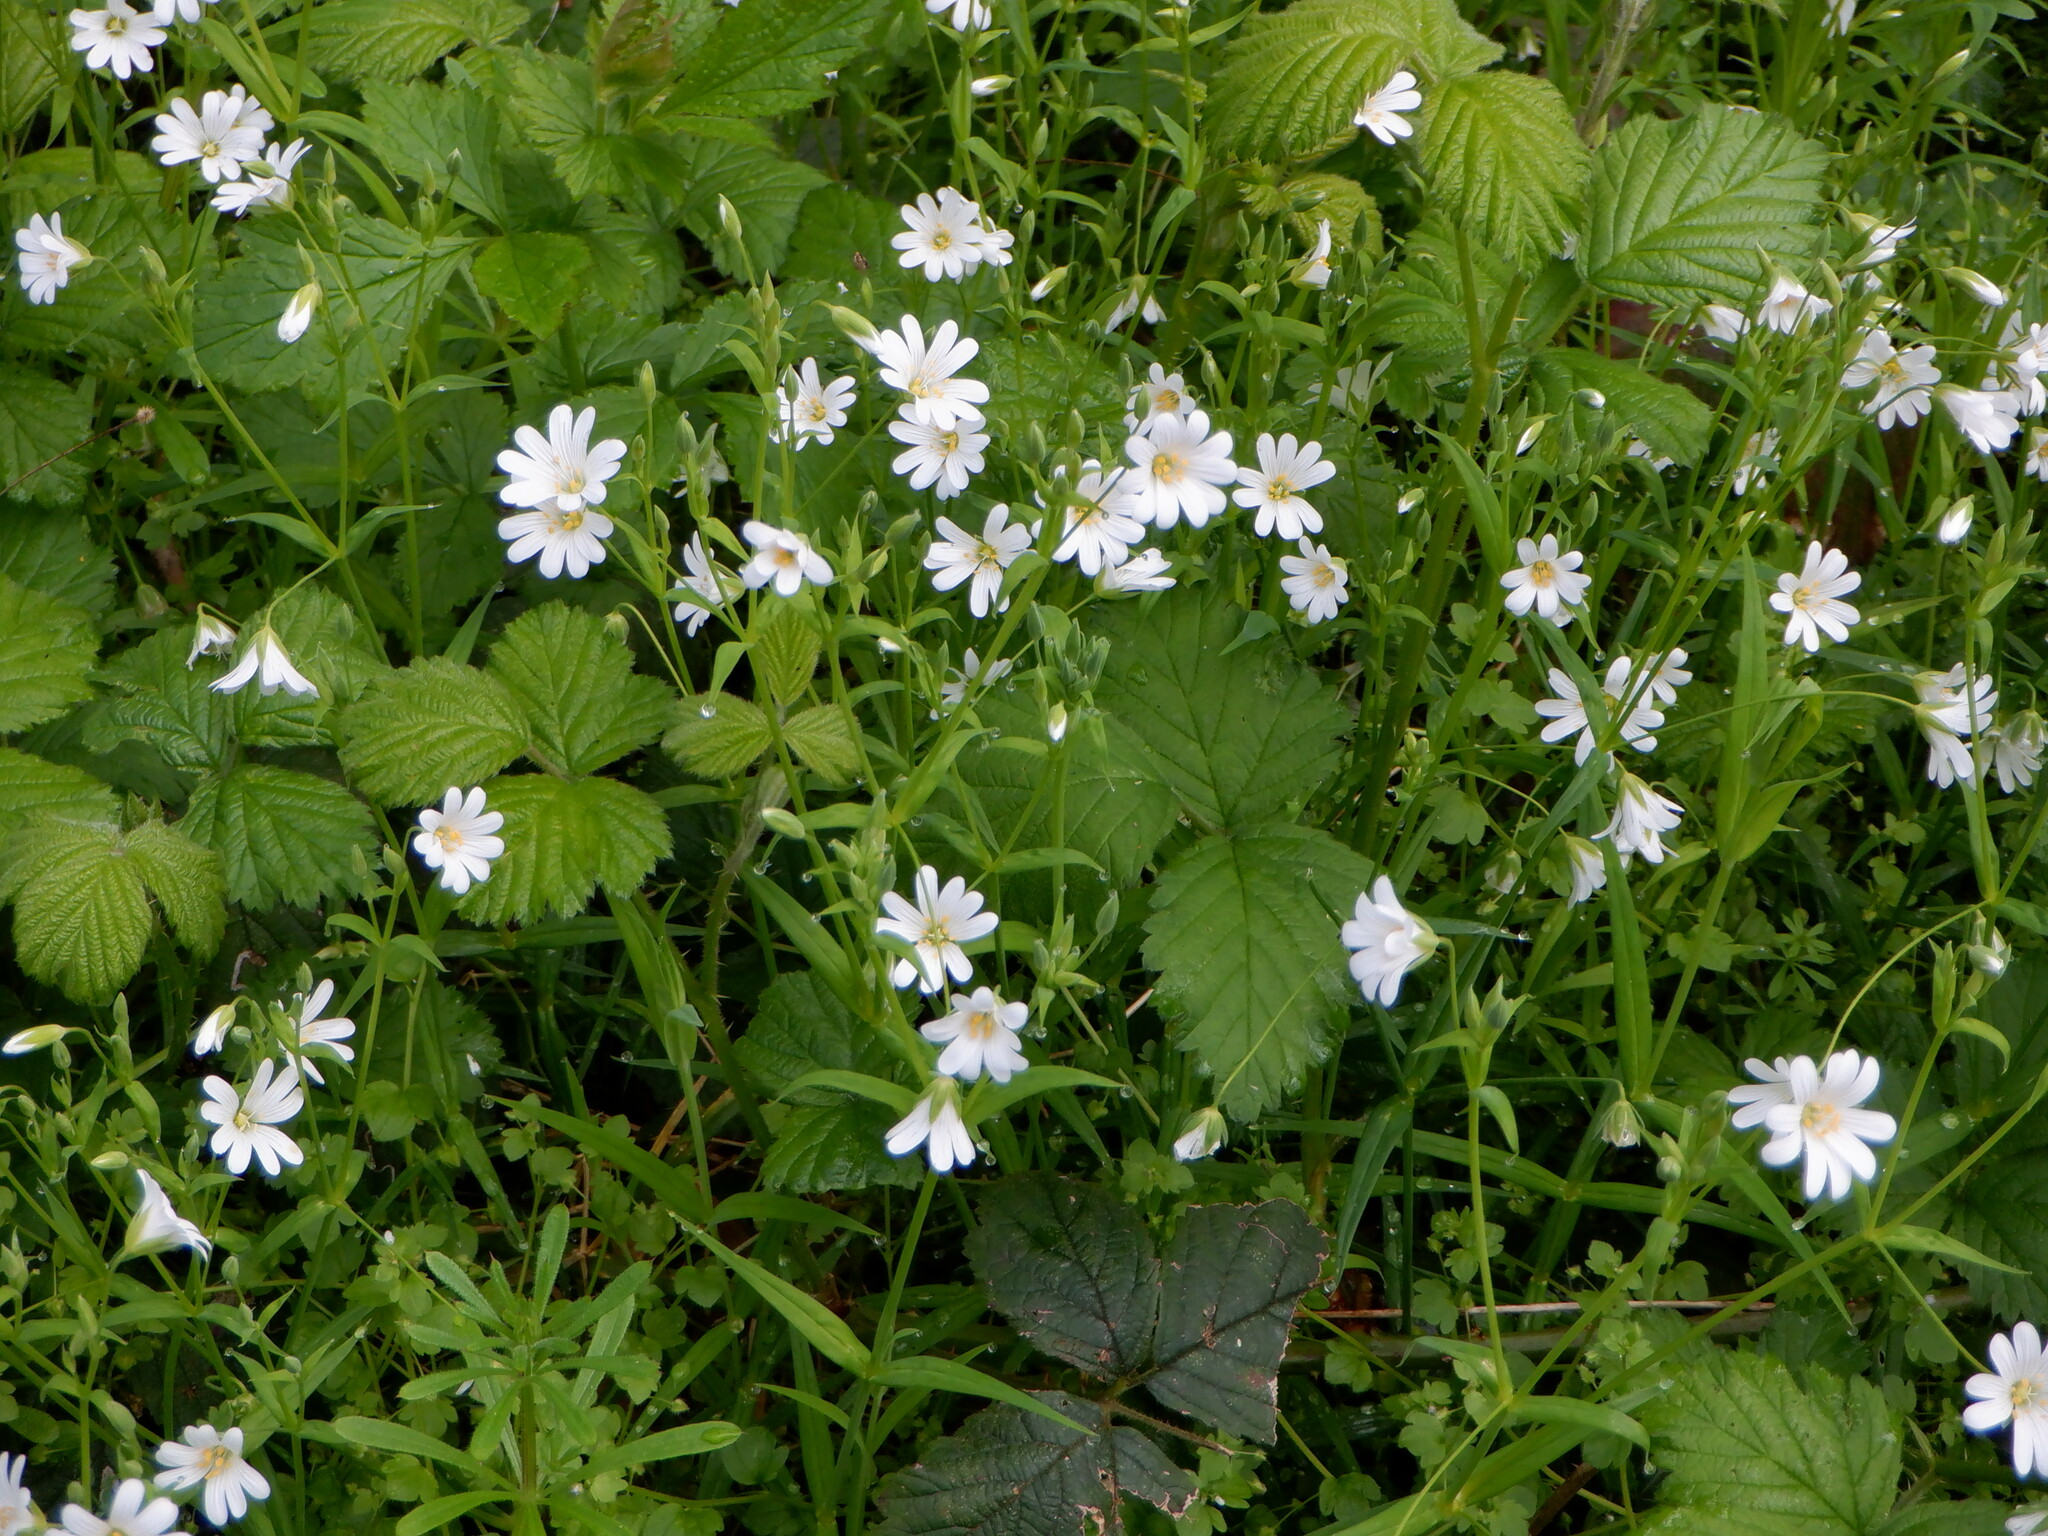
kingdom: Plantae
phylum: Tracheophyta
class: Magnoliopsida
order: Caryophyllales
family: Caryophyllaceae
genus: Rabelera
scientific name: Rabelera holostea
